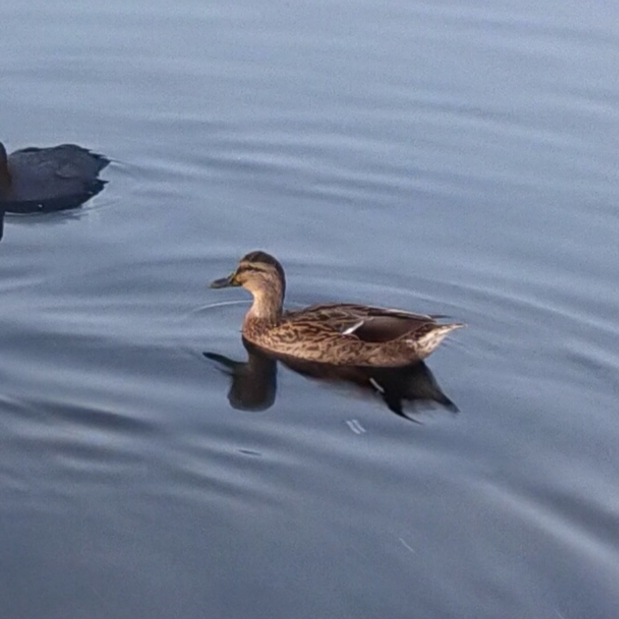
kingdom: Animalia
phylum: Chordata
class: Aves
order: Anseriformes
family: Anatidae
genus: Anas
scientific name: Anas platyrhynchos
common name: Mallard
